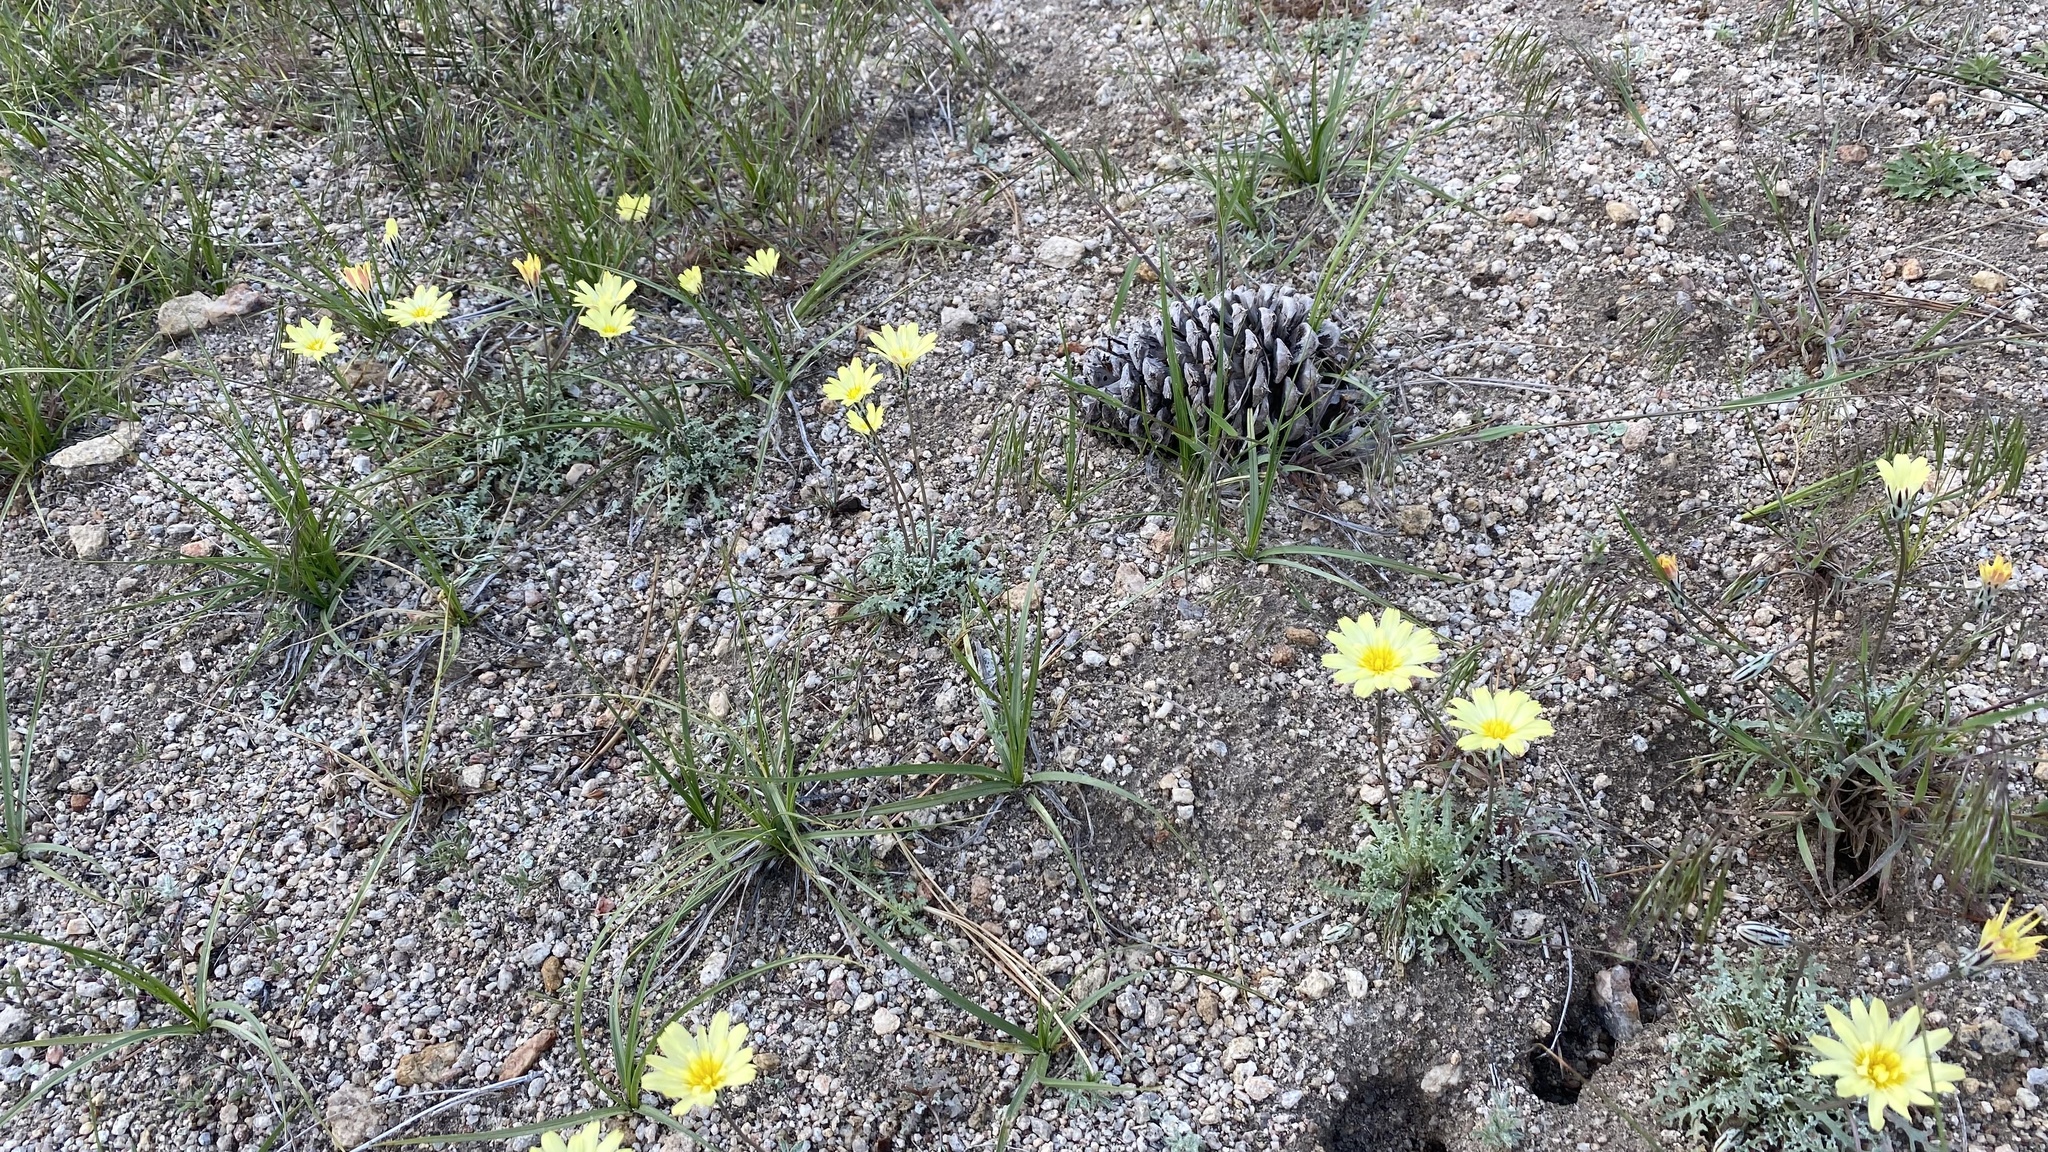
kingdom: Plantae
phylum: Tracheophyta
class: Magnoliopsida
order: Asterales
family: Asteraceae
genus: Anisocoma
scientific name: Anisocoma acaulis
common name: Scalebud
